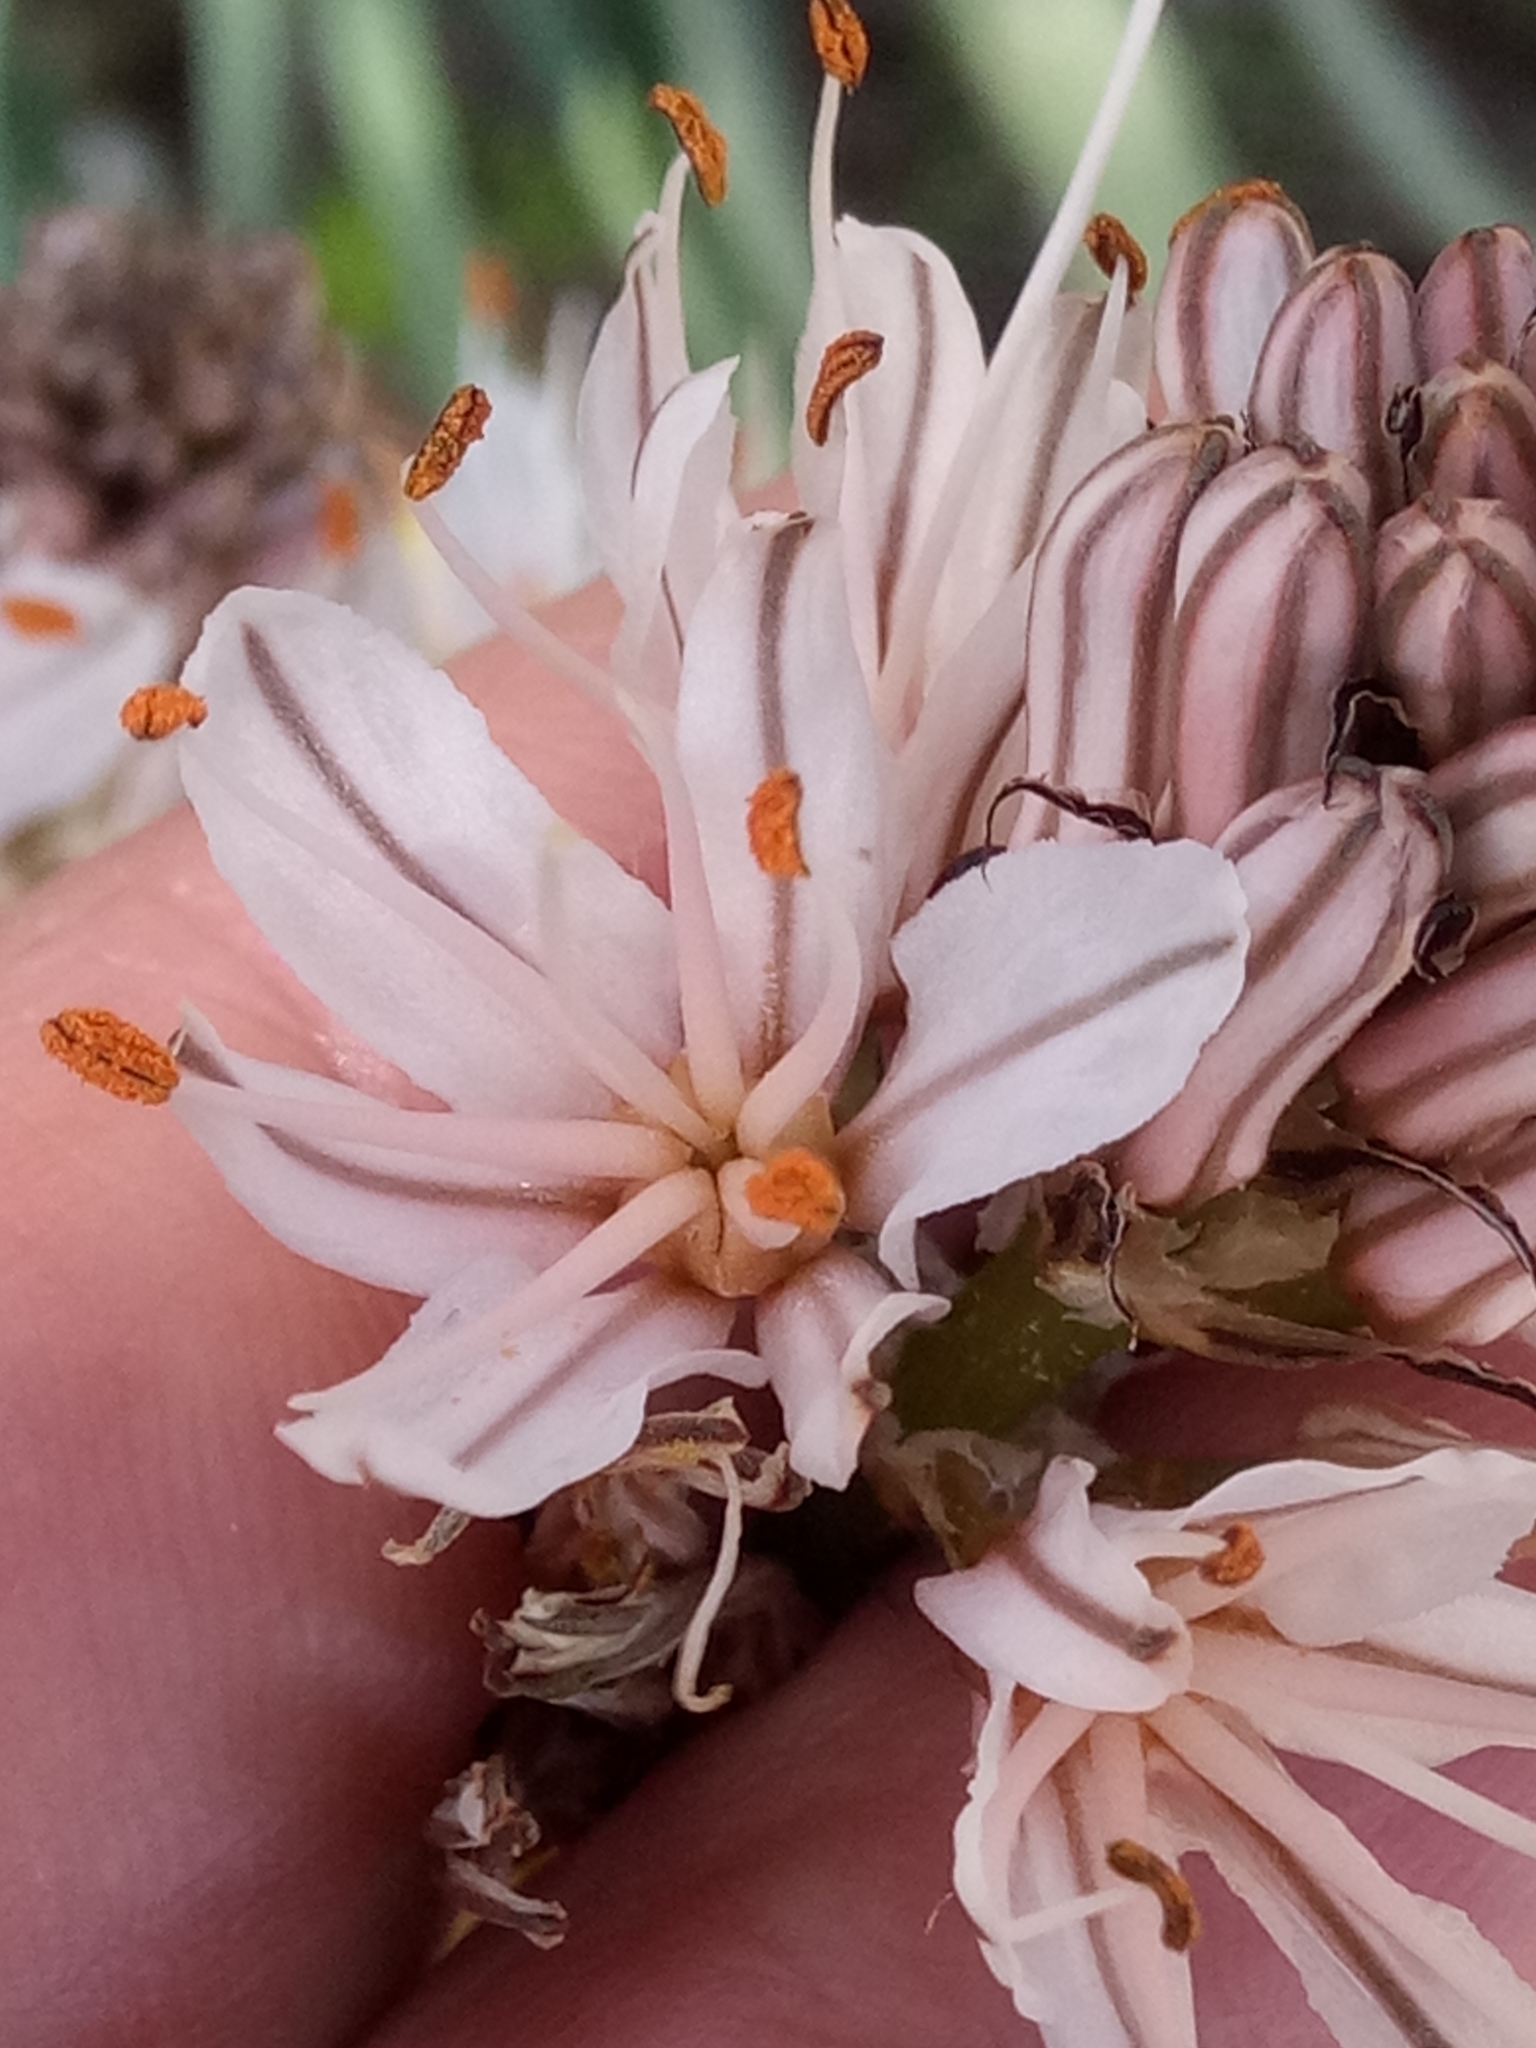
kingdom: Plantae
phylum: Tracheophyta
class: Liliopsida
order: Asparagales
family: Asphodelaceae
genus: Asphodelus
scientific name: Asphodelus ramosus
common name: Silverrod
